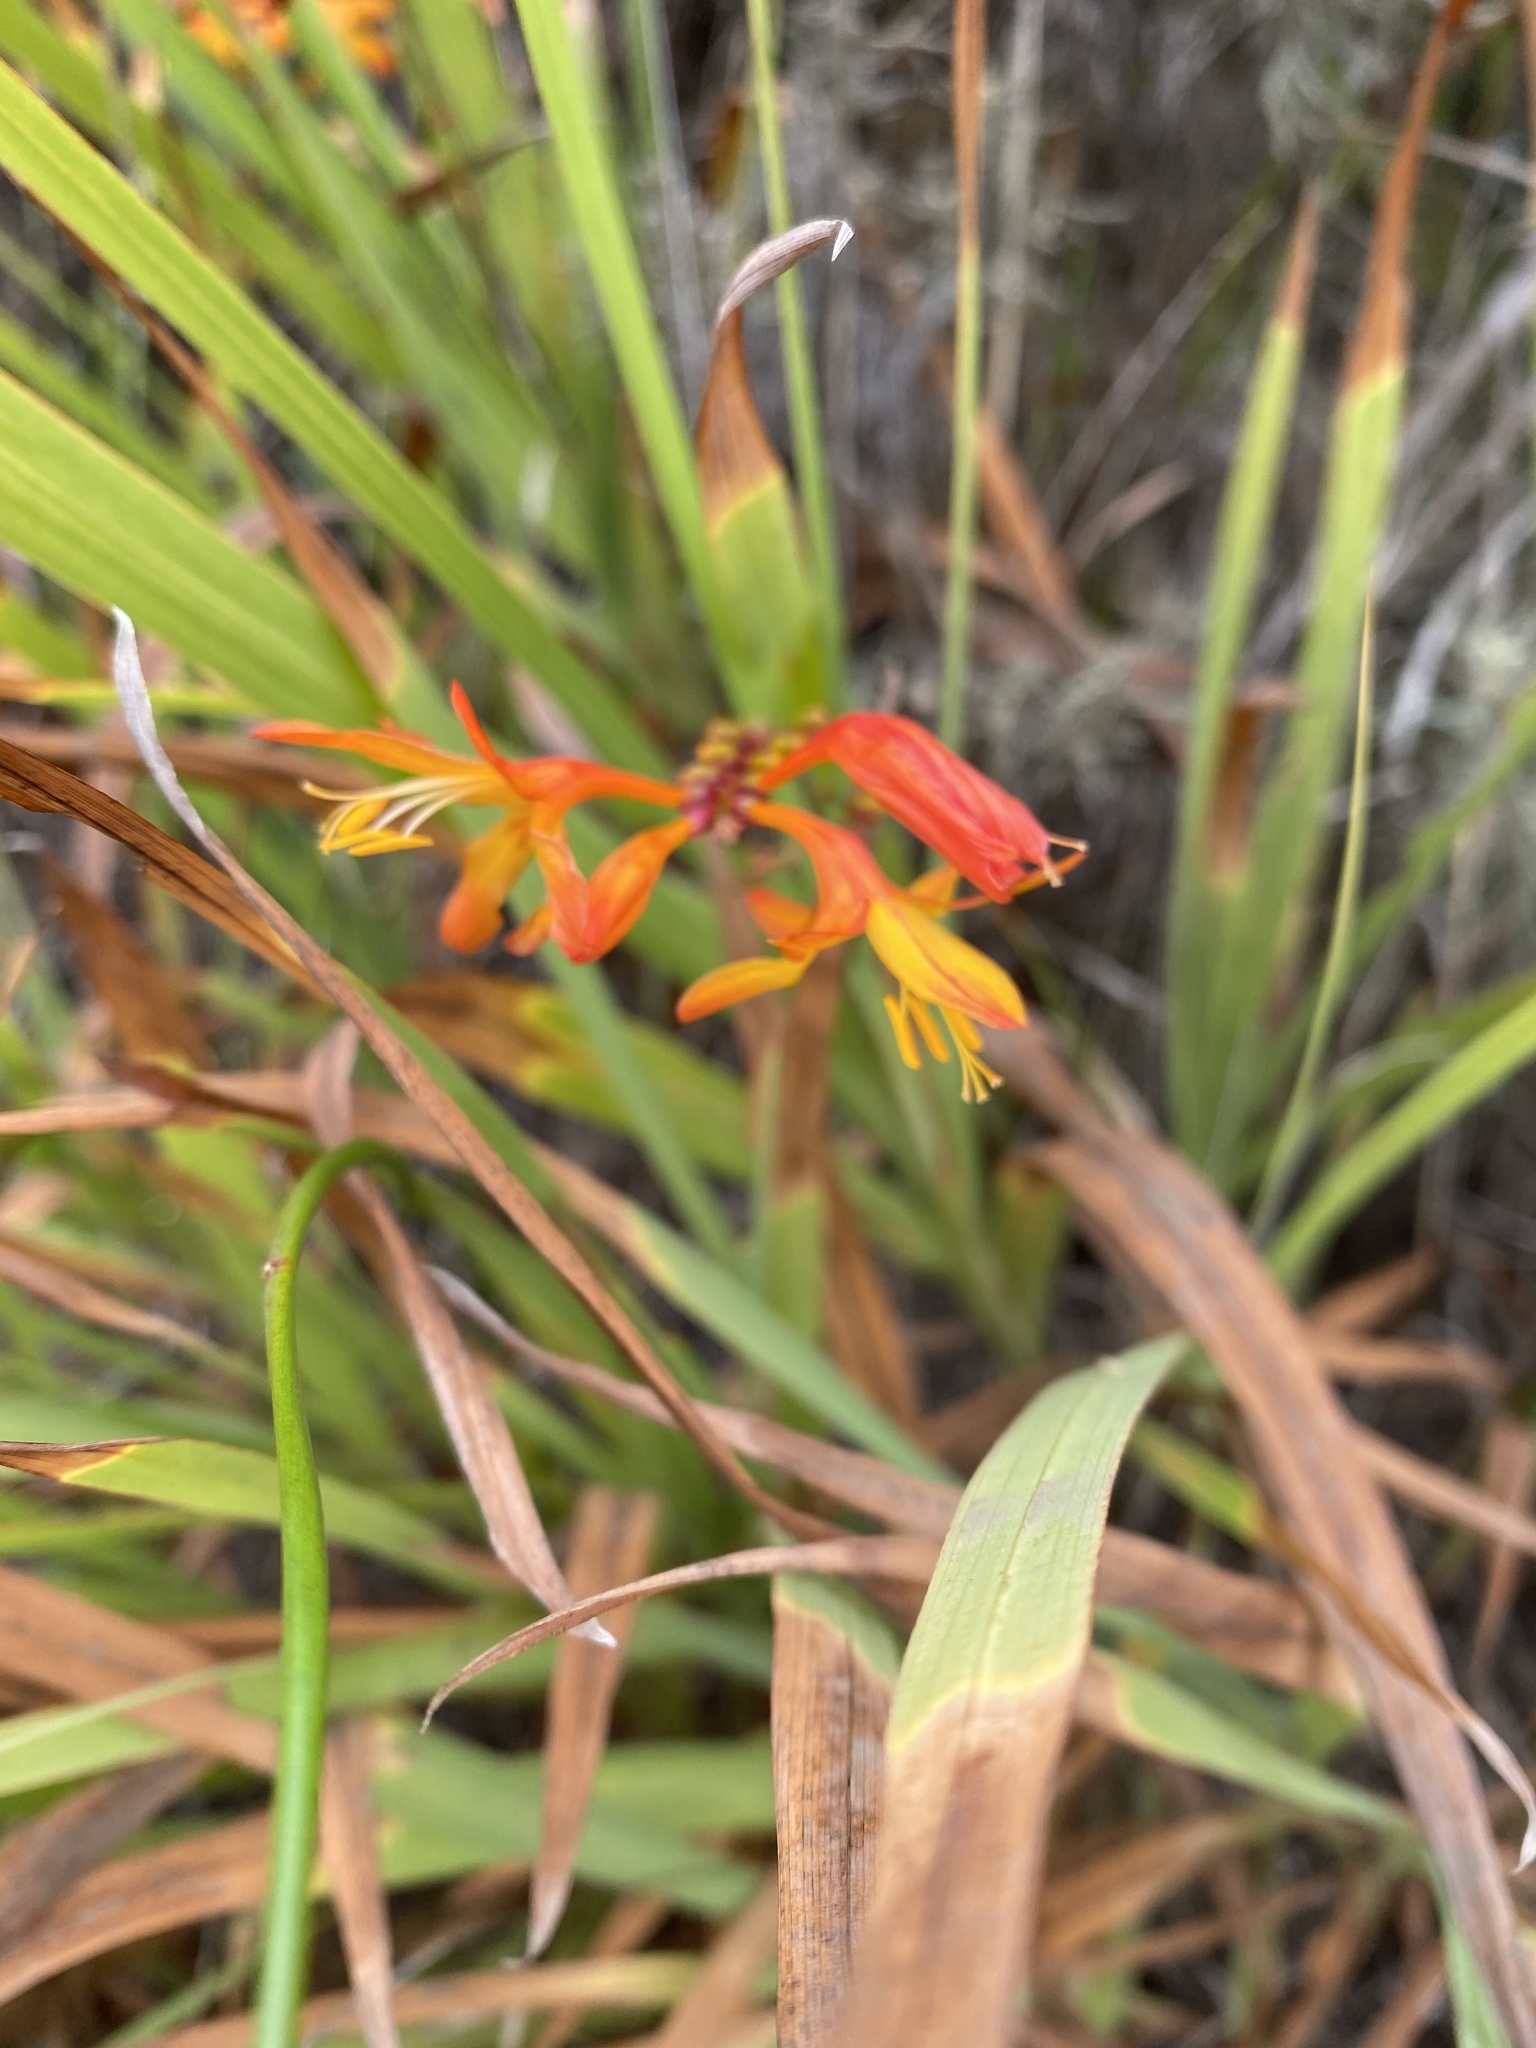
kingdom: Plantae
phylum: Tracheophyta
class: Liliopsida
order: Asparagales
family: Iridaceae
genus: Crocosmia
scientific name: Crocosmia crocosmiiflora
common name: Montbretia
